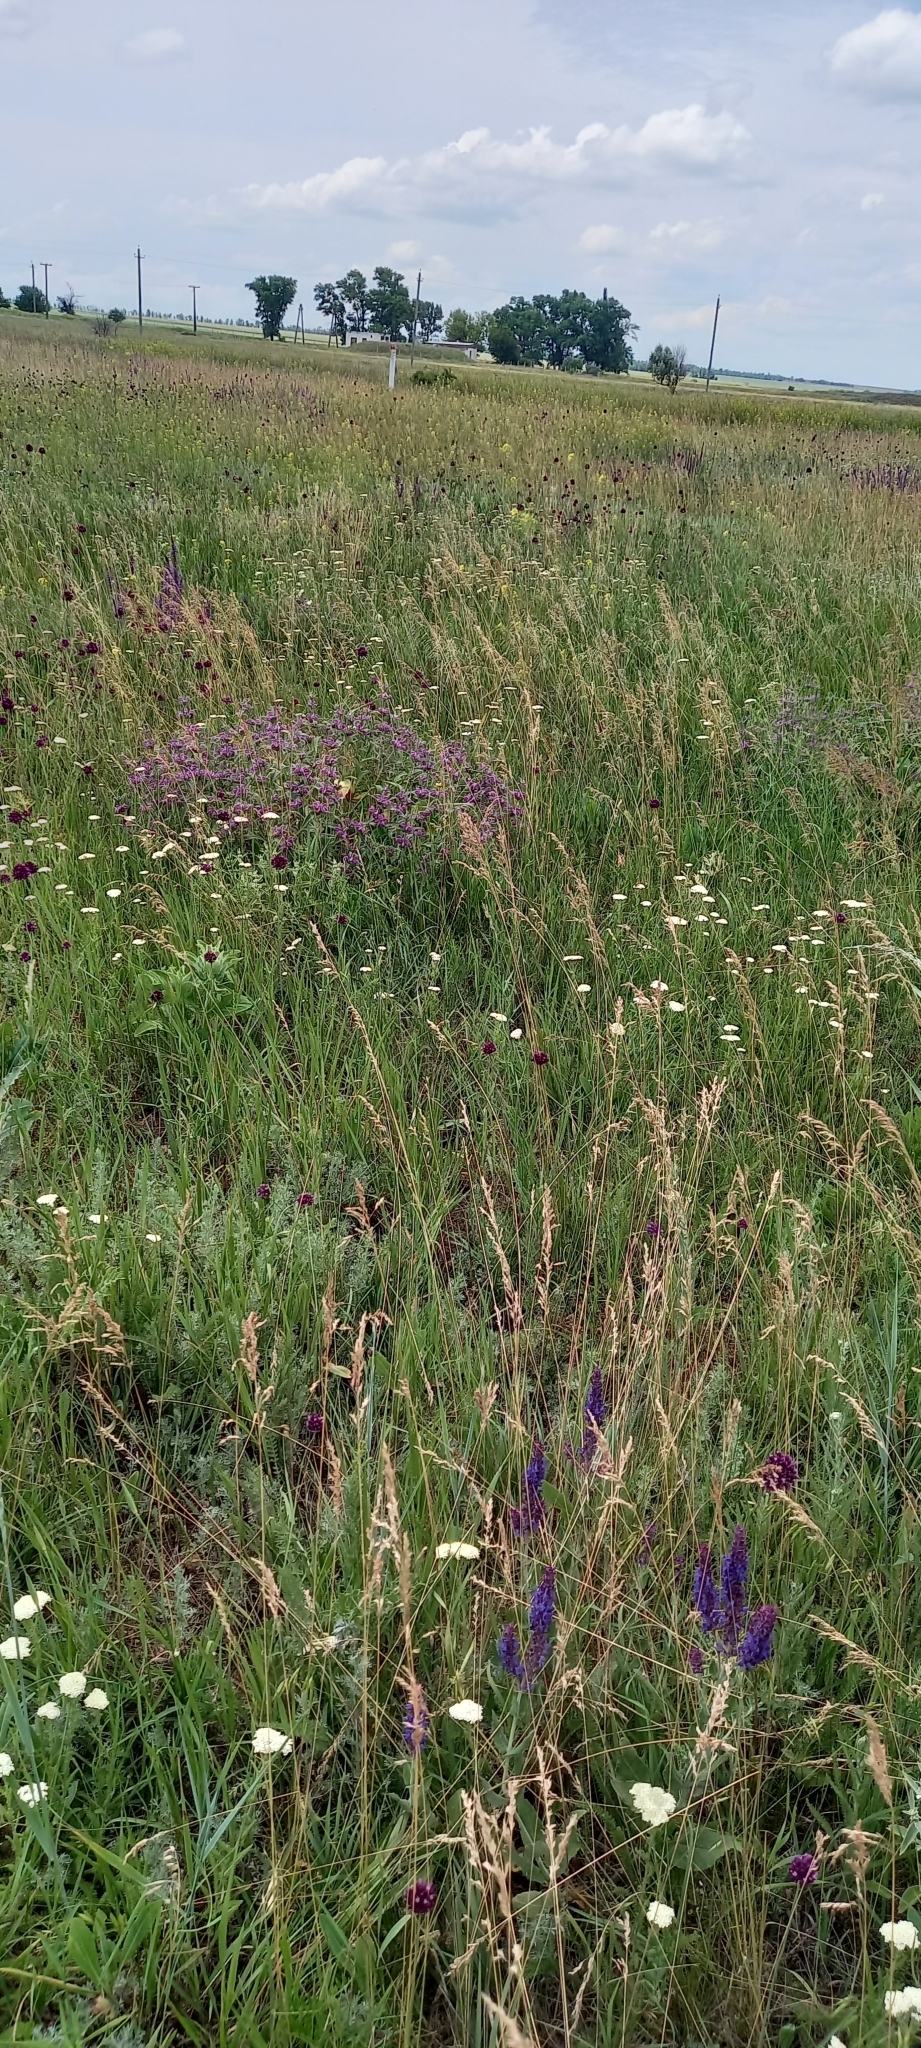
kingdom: Plantae
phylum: Tracheophyta
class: Magnoliopsida
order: Lamiales
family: Lamiaceae
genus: Phlomis
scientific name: Phlomis herba-venti
